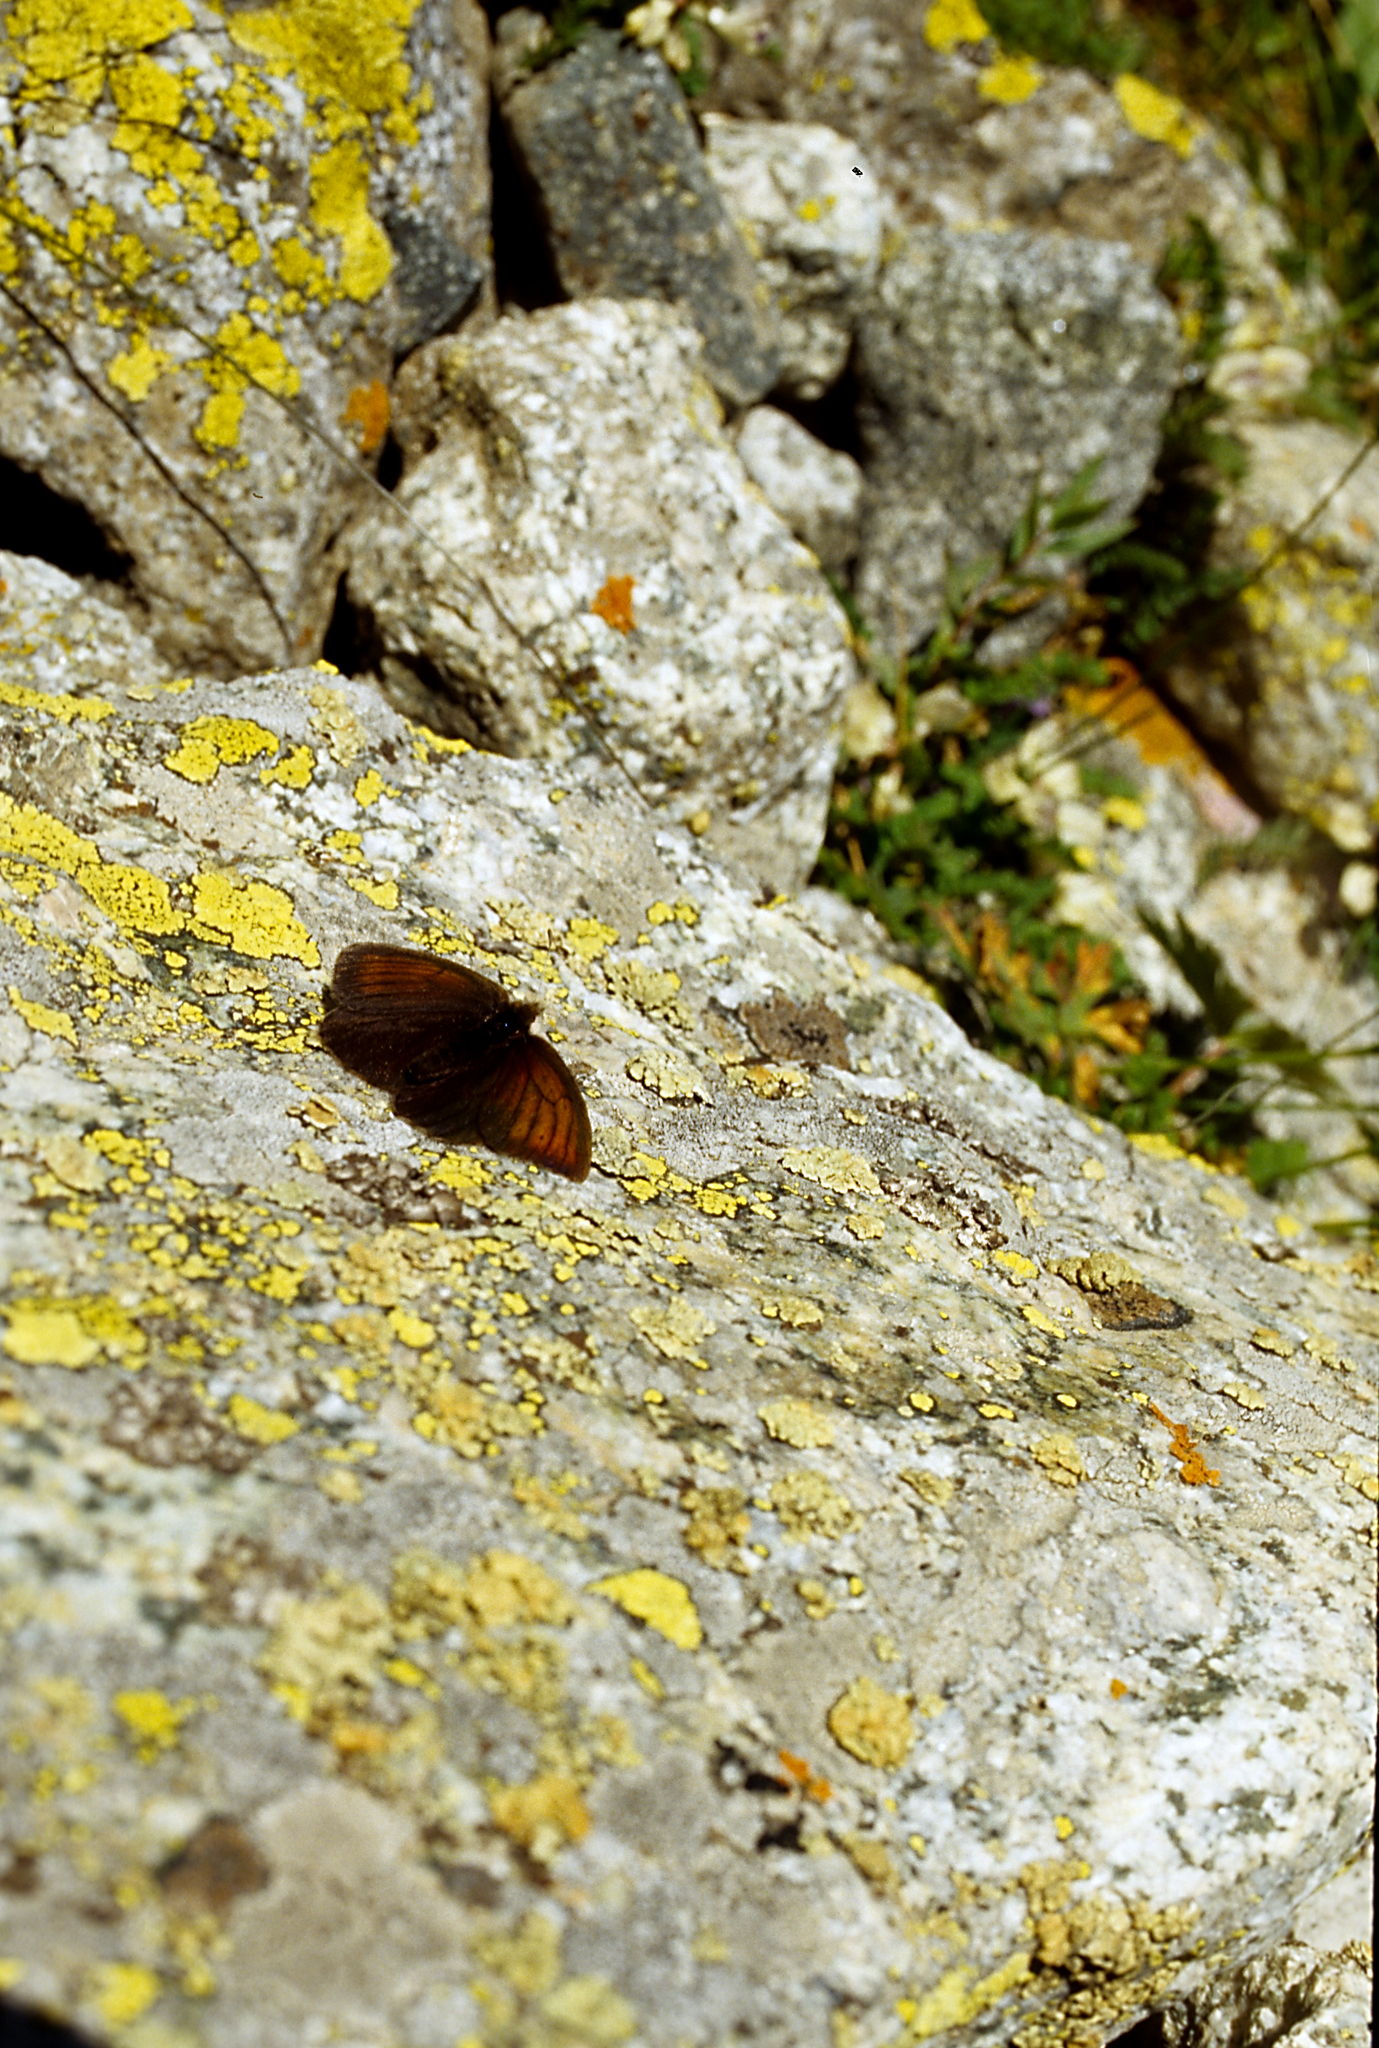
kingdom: Animalia
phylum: Arthropoda
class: Insecta
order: Lepidoptera
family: Nymphalidae
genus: Erebia
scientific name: Erebia ocnus
